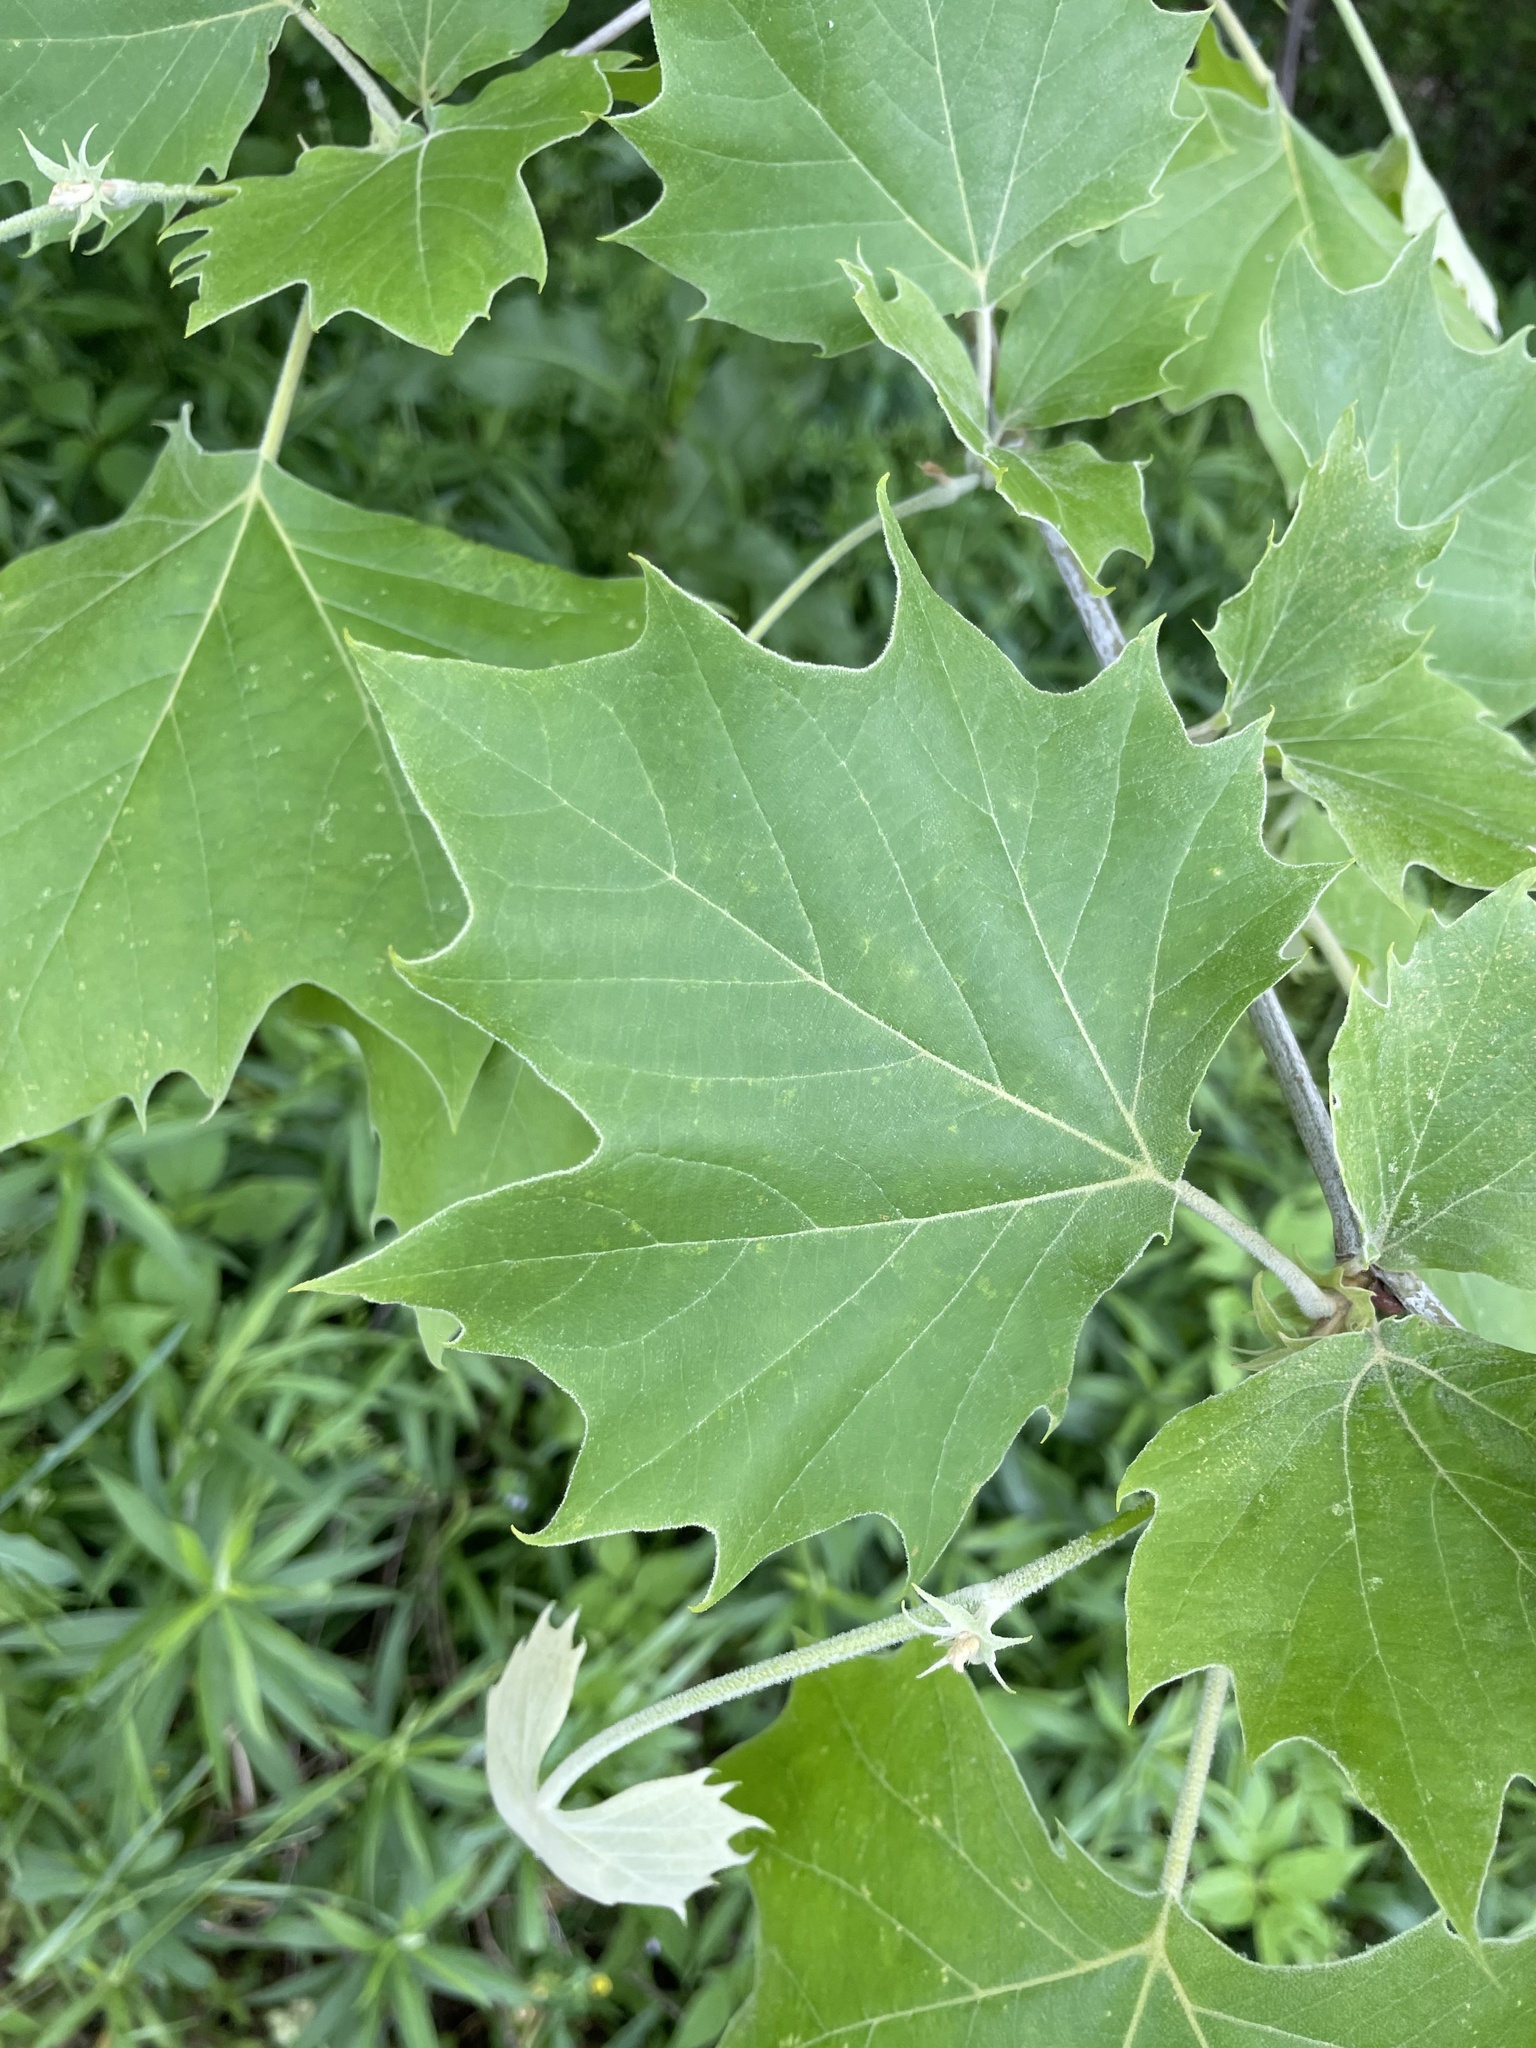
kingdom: Plantae
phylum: Tracheophyta
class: Magnoliopsida
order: Proteales
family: Platanaceae
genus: Platanus
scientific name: Platanus occidentalis
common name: American sycamore
